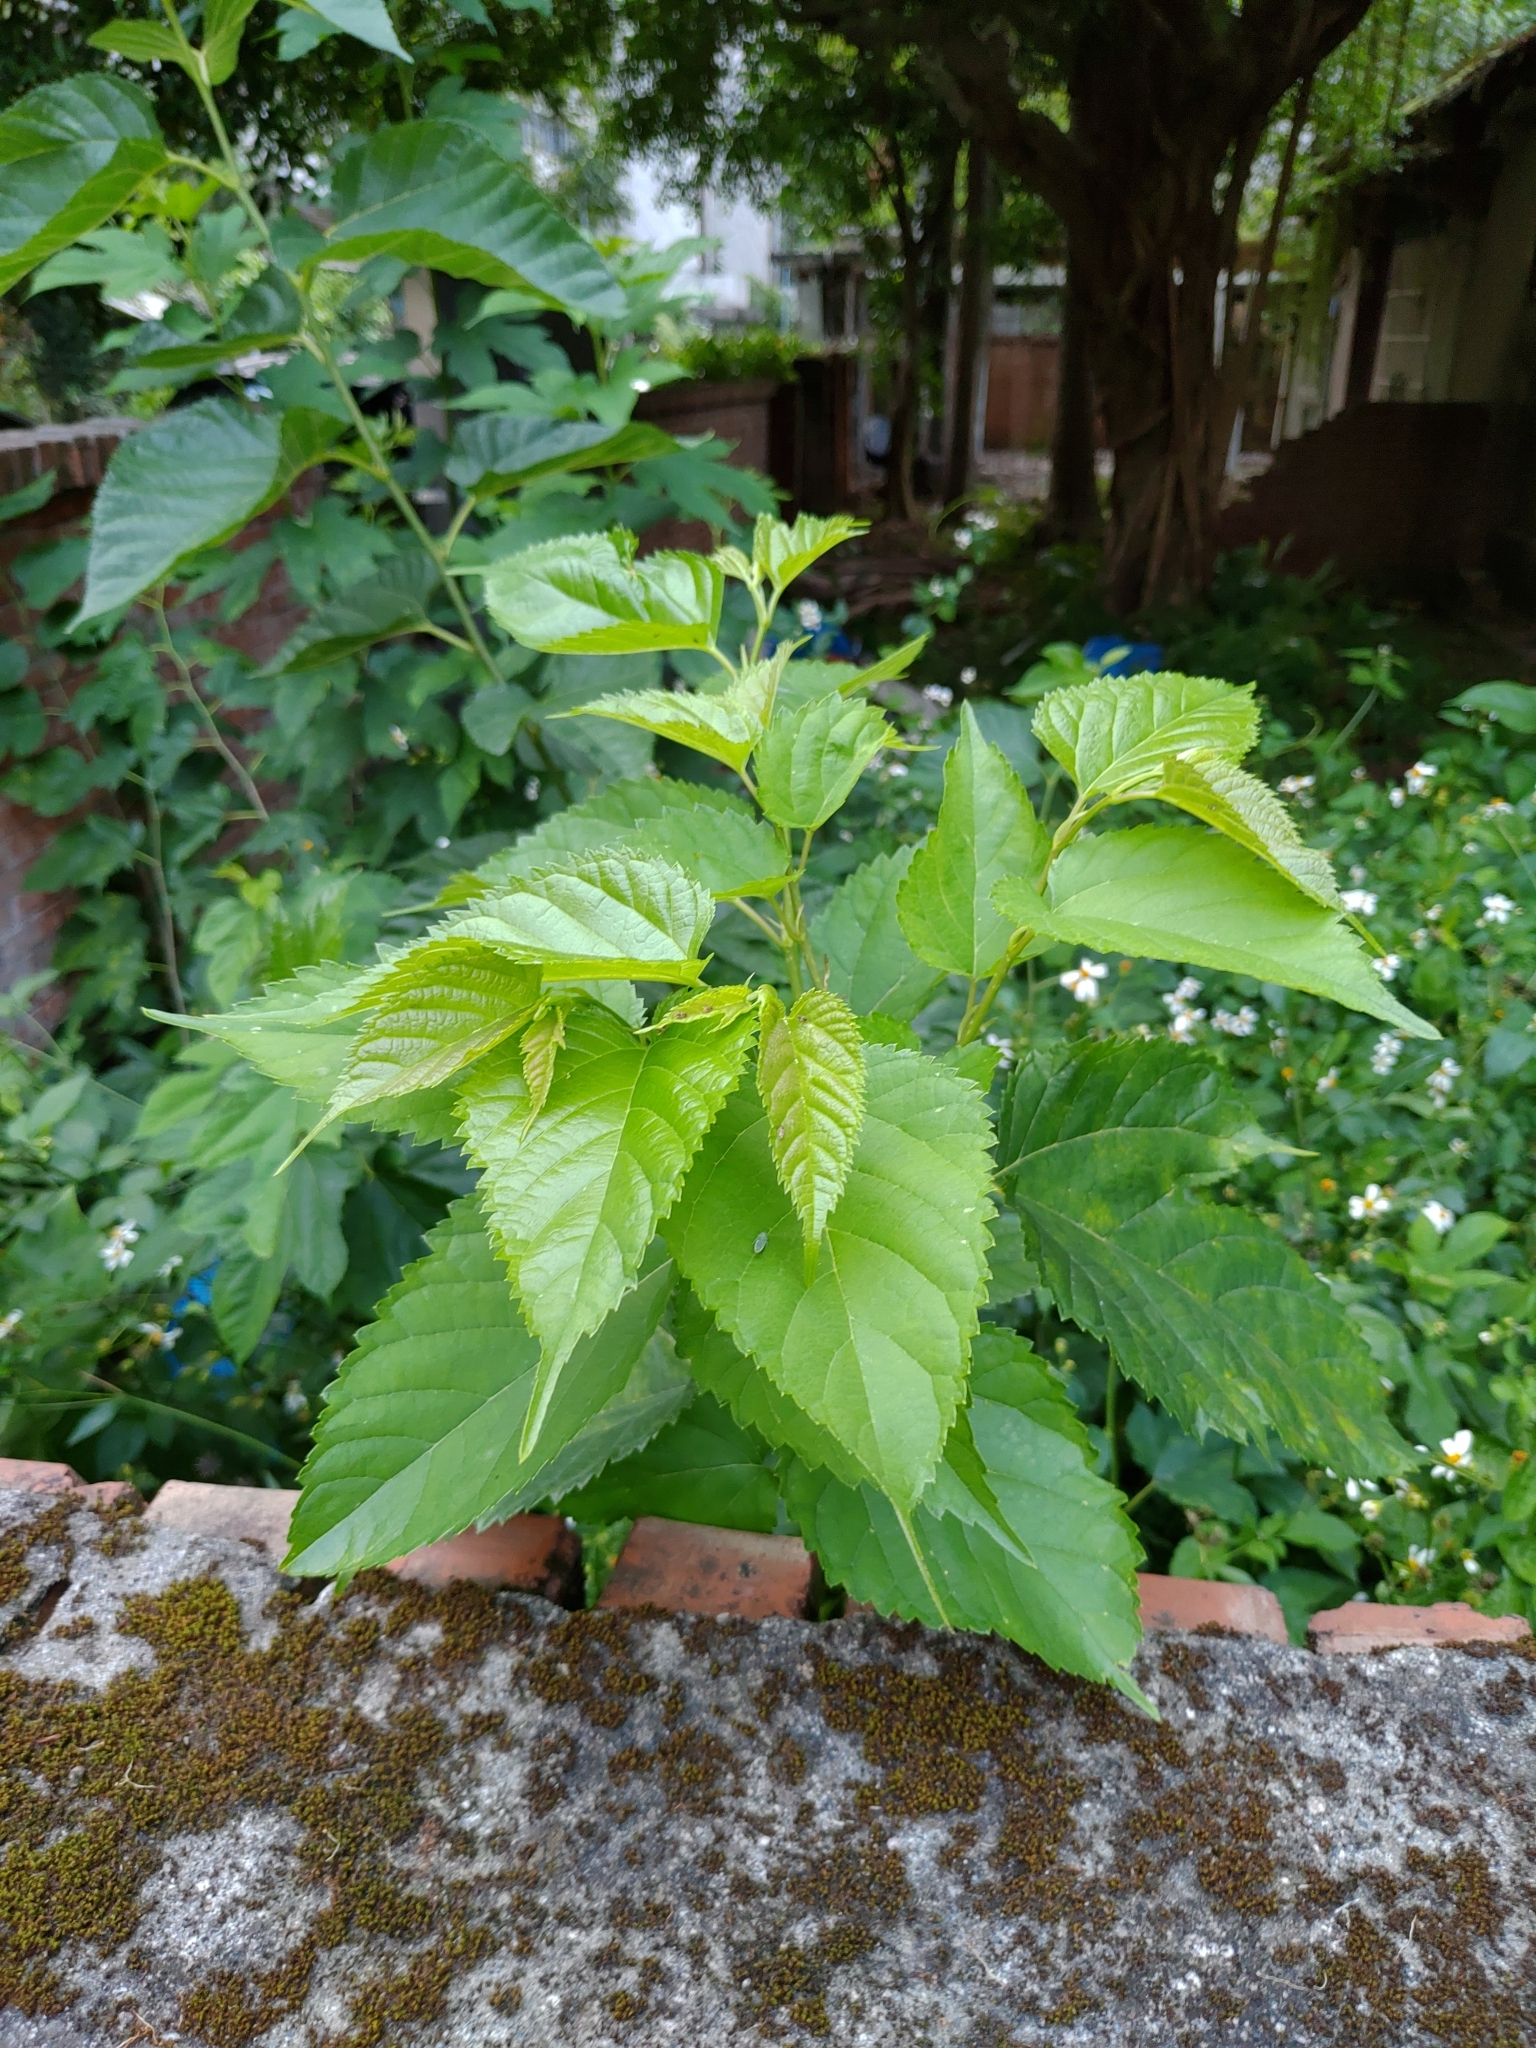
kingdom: Plantae
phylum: Tracheophyta
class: Magnoliopsida
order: Rosales
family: Moraceae
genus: Morus
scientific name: Morus indica
